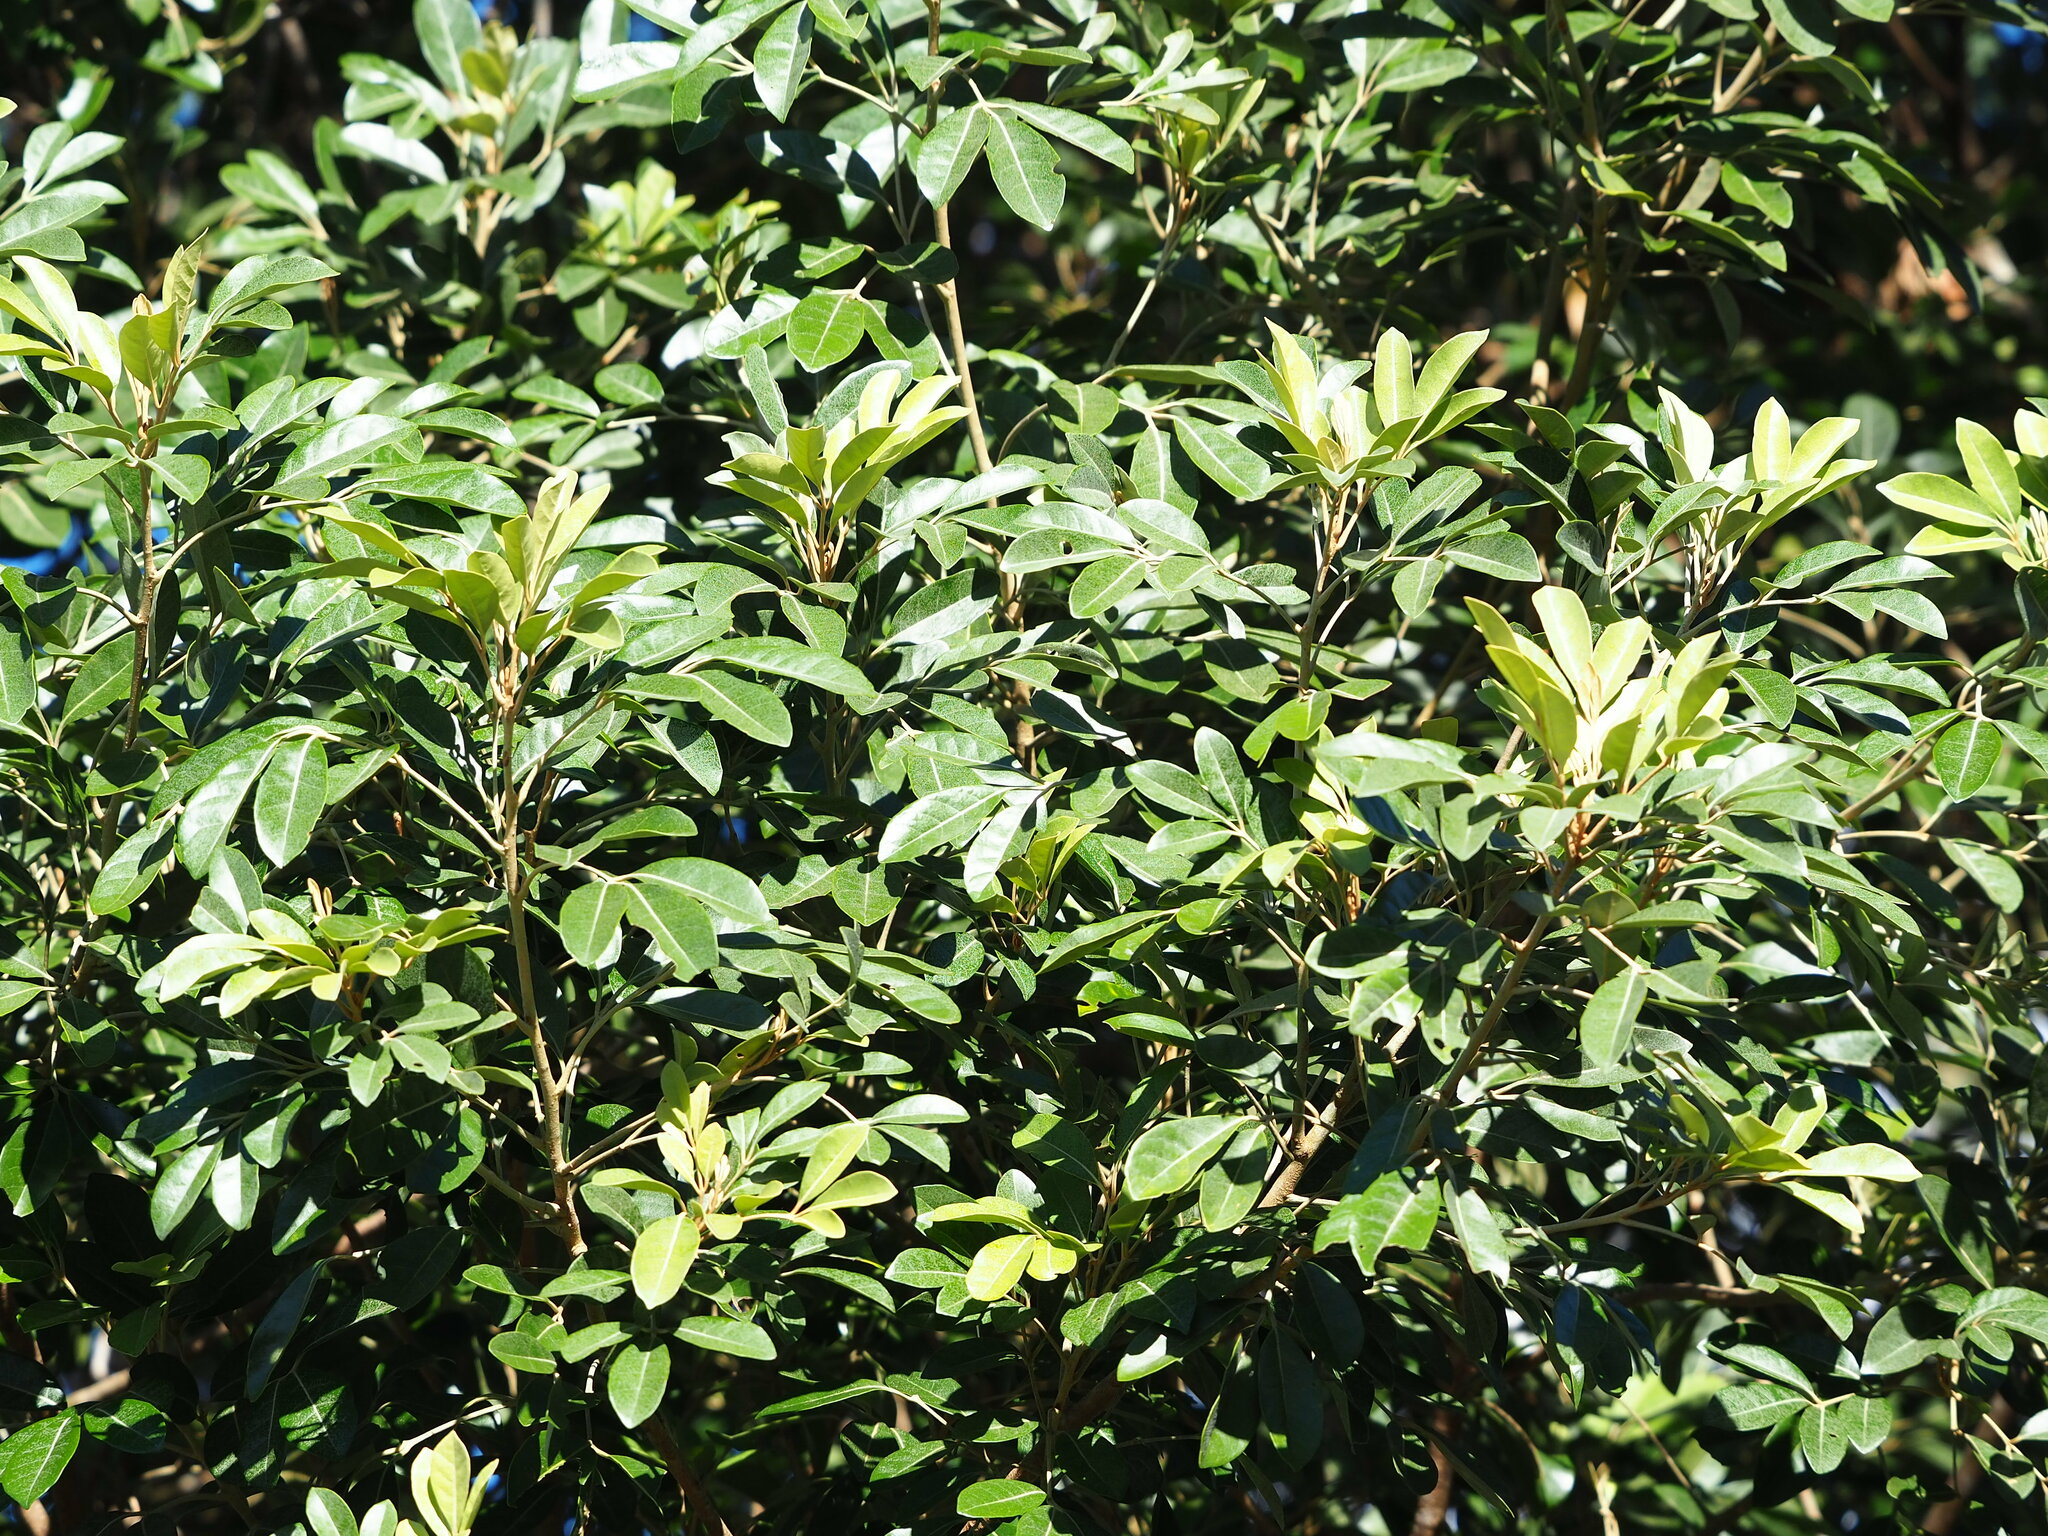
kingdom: Plantae
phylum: Tracheophyta
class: Magnoliopsida
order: Sapindales
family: Meliaceae
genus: Aglaia
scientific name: Aglaia elaeagnoidea
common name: Droopyleaf
